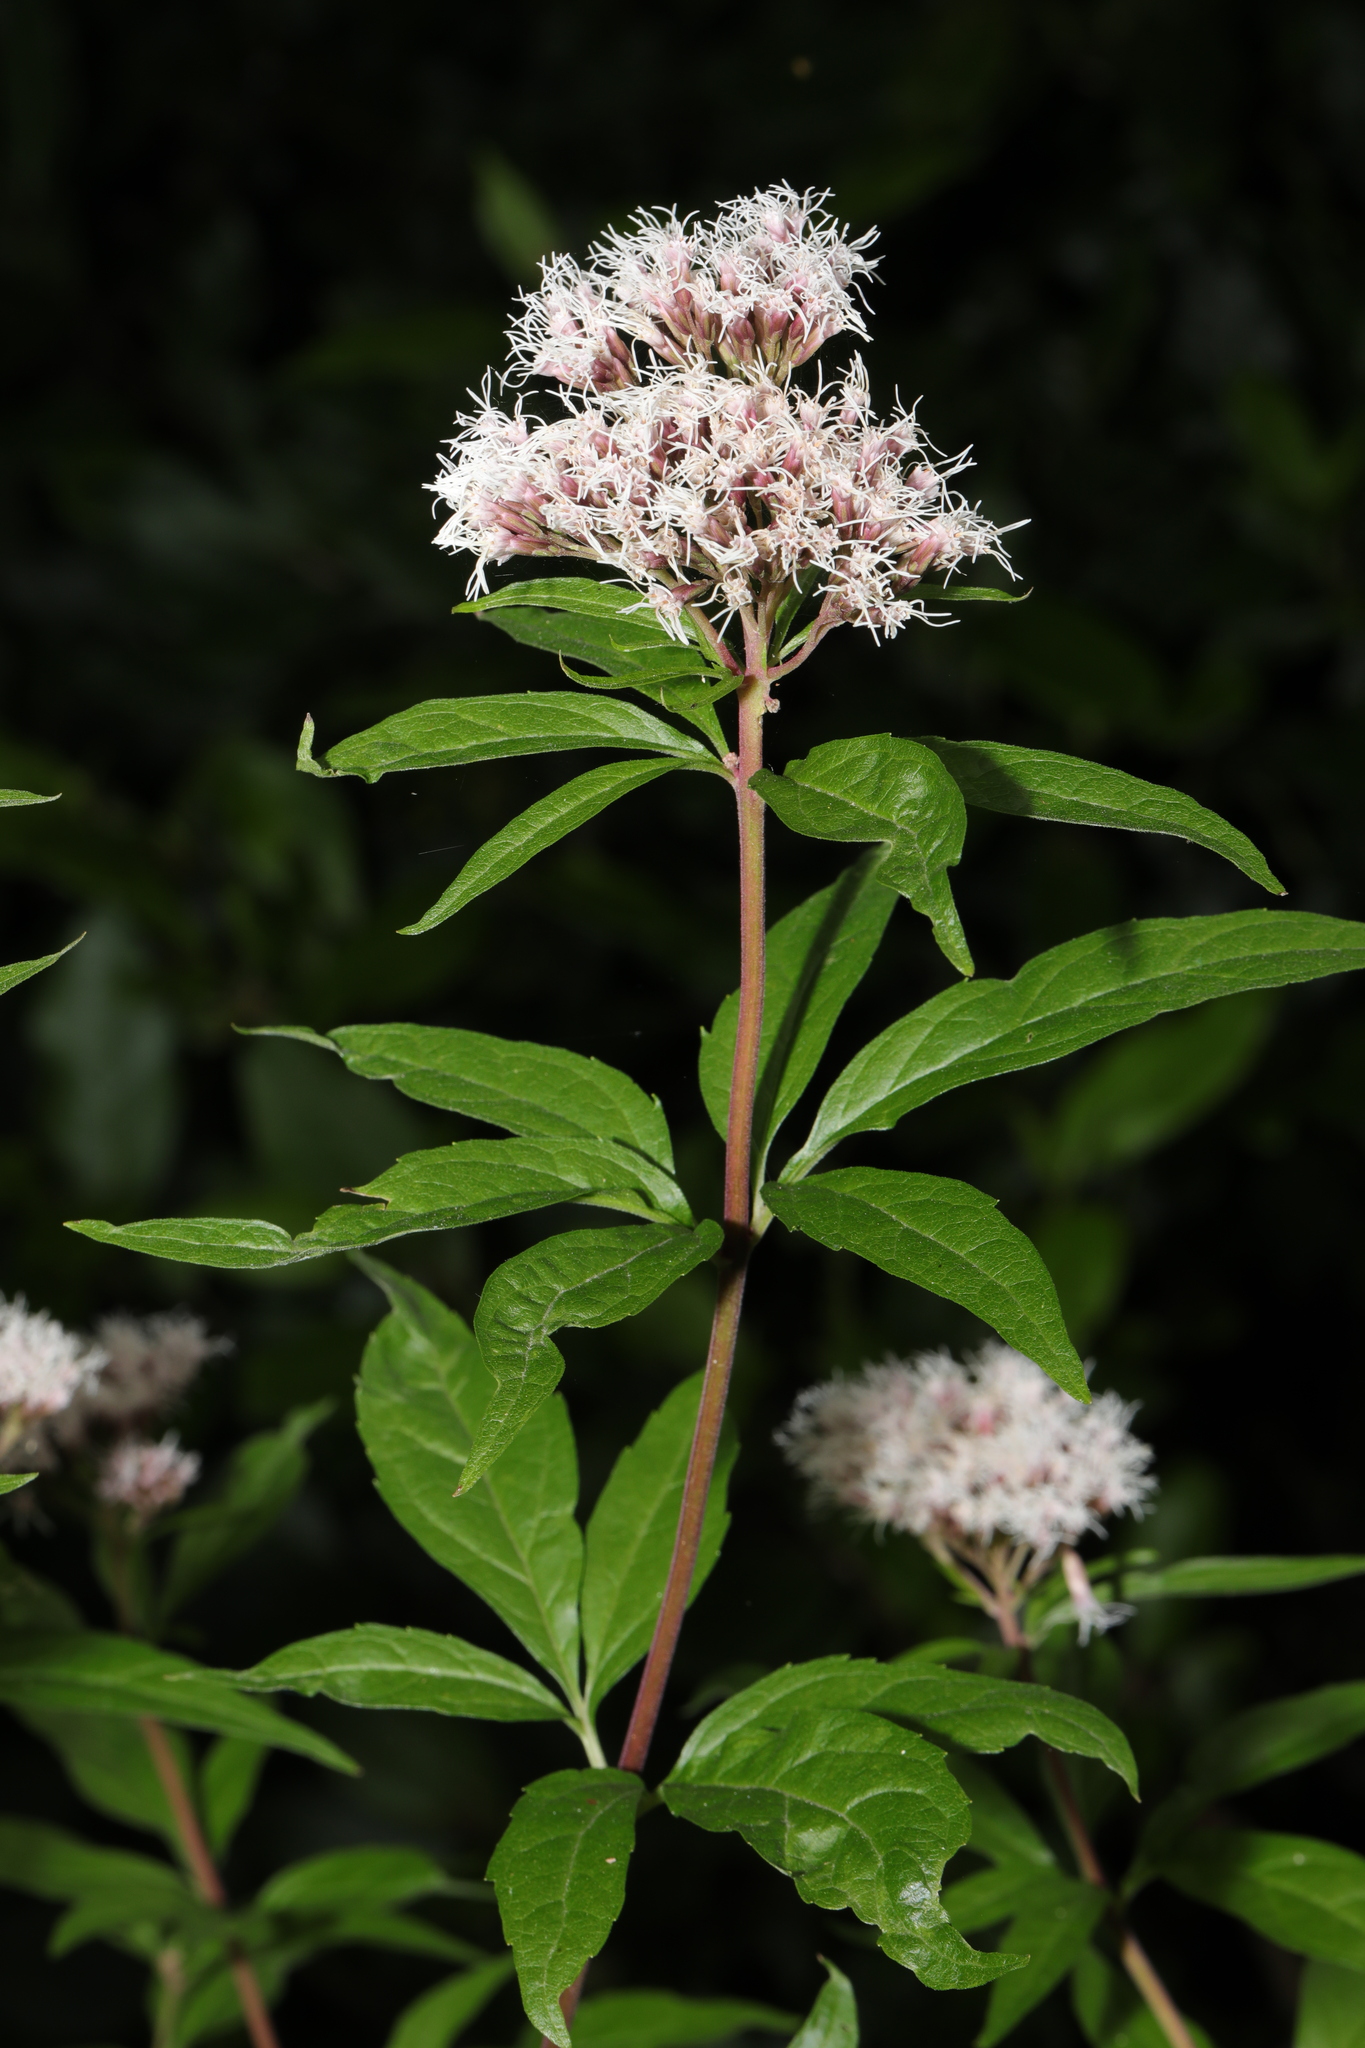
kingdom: Plantae
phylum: Tracheophyta
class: Magnoliopsida
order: Asterales
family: Asteraceae
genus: Eupatorium
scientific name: Eupatorium cannabinum
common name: Hemp-agrimony
